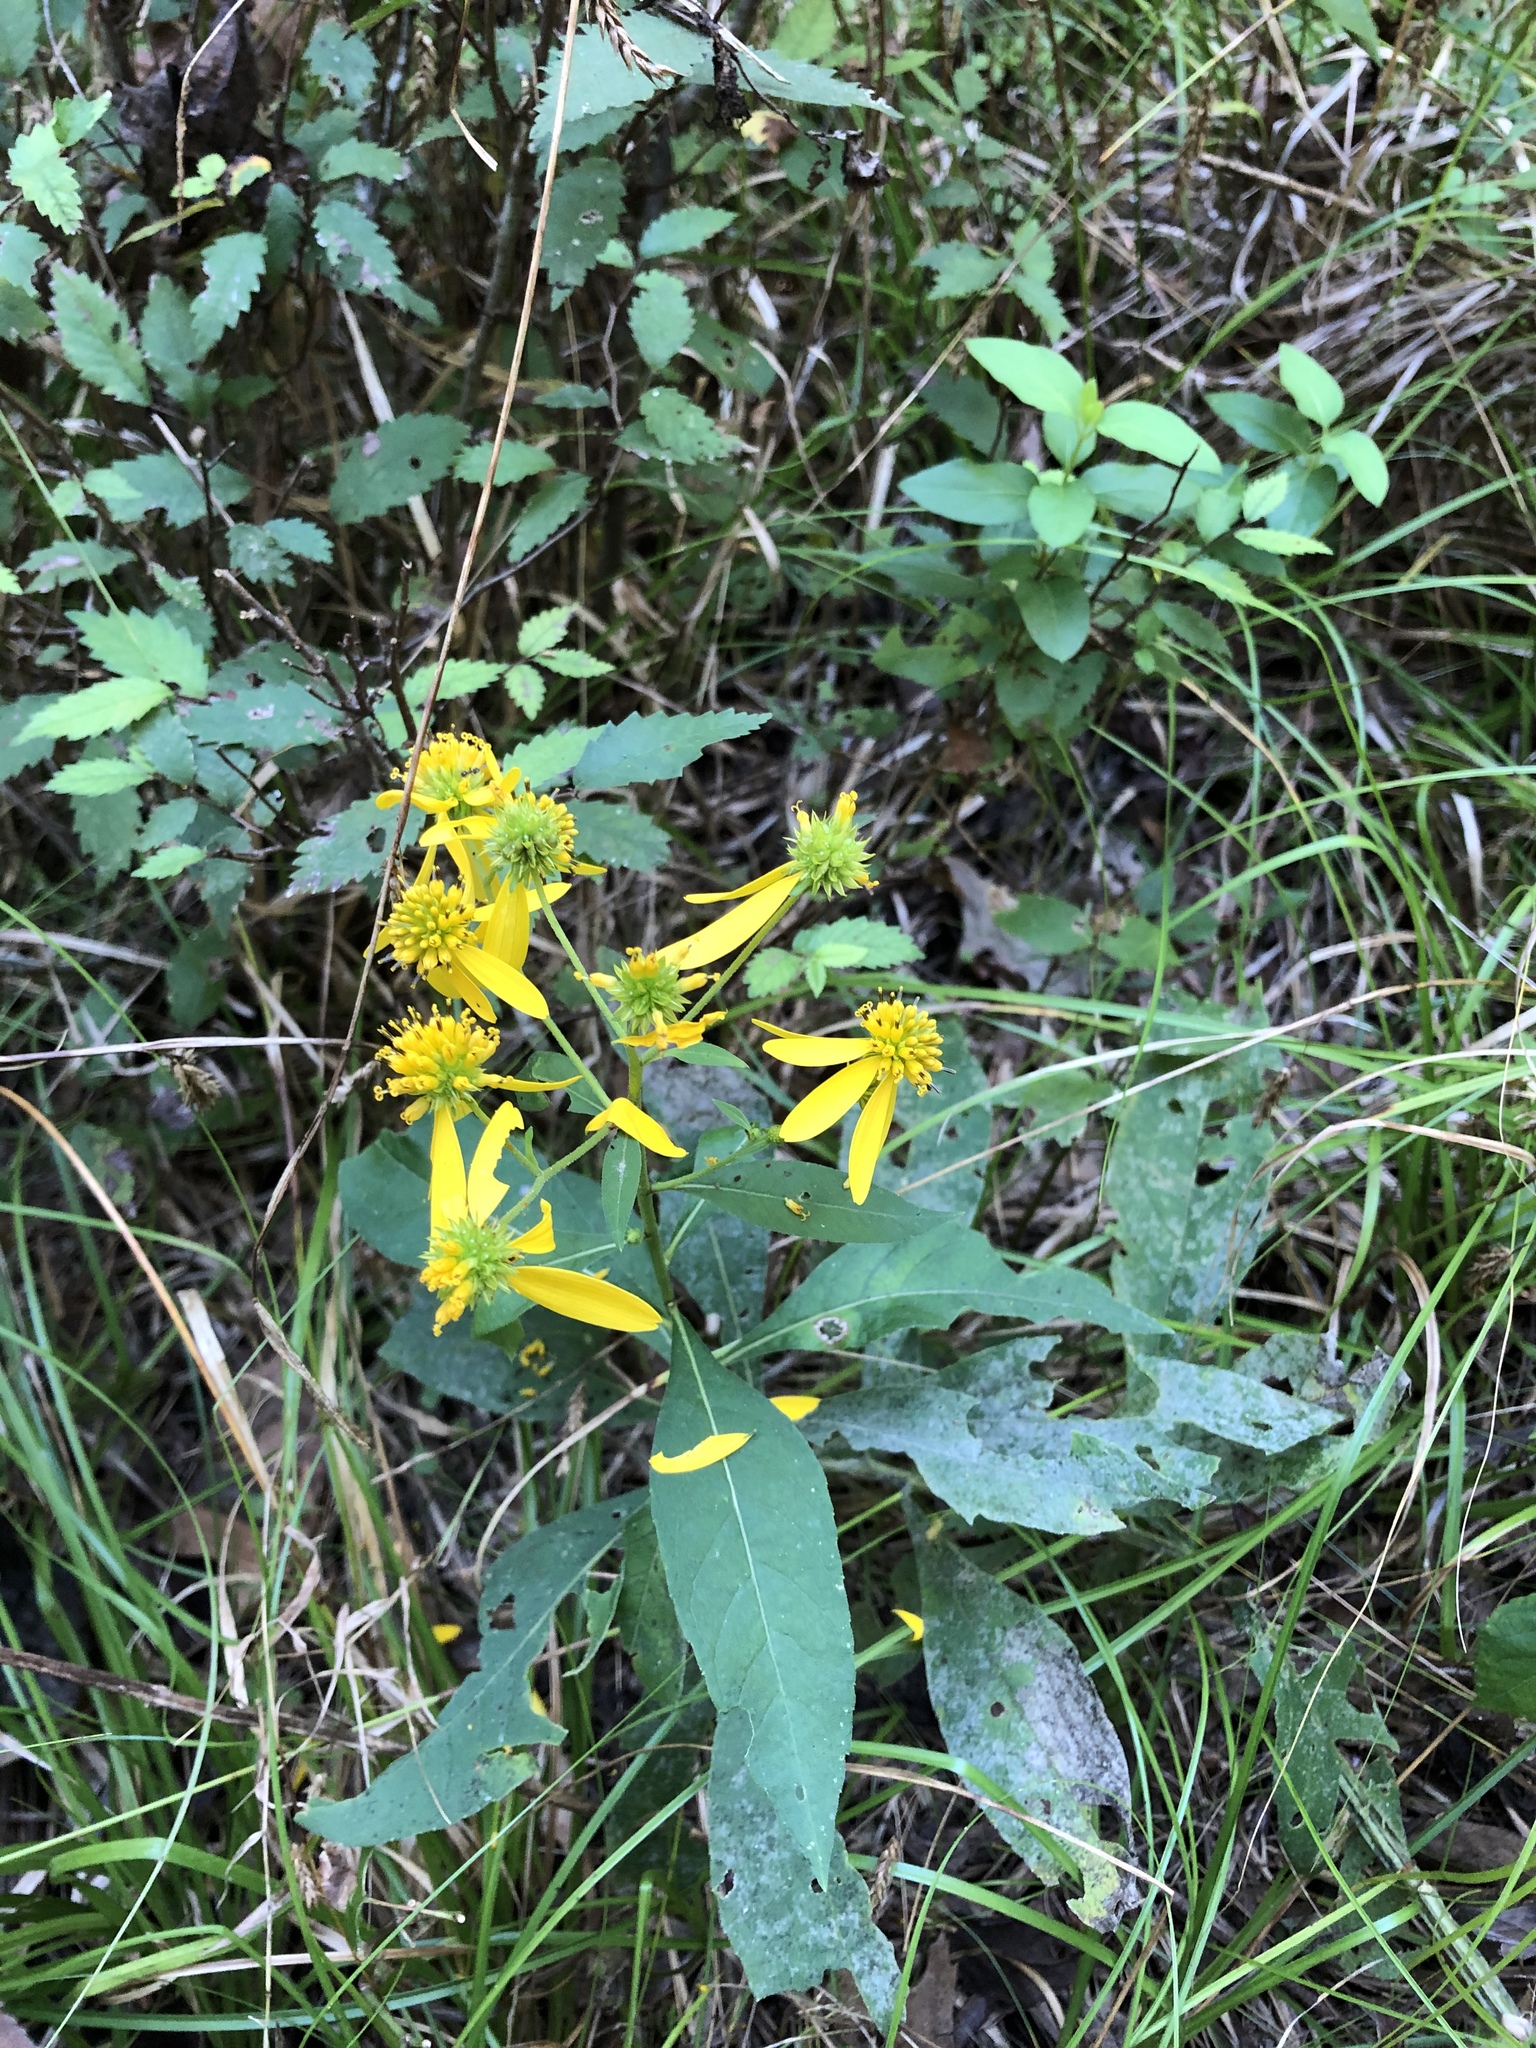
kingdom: Plantae
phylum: Tracheophyta
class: Magnoliopsida
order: Asterales
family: Asteraceae
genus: Verbesina
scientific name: Verbesina alternifolia
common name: Wingstem
